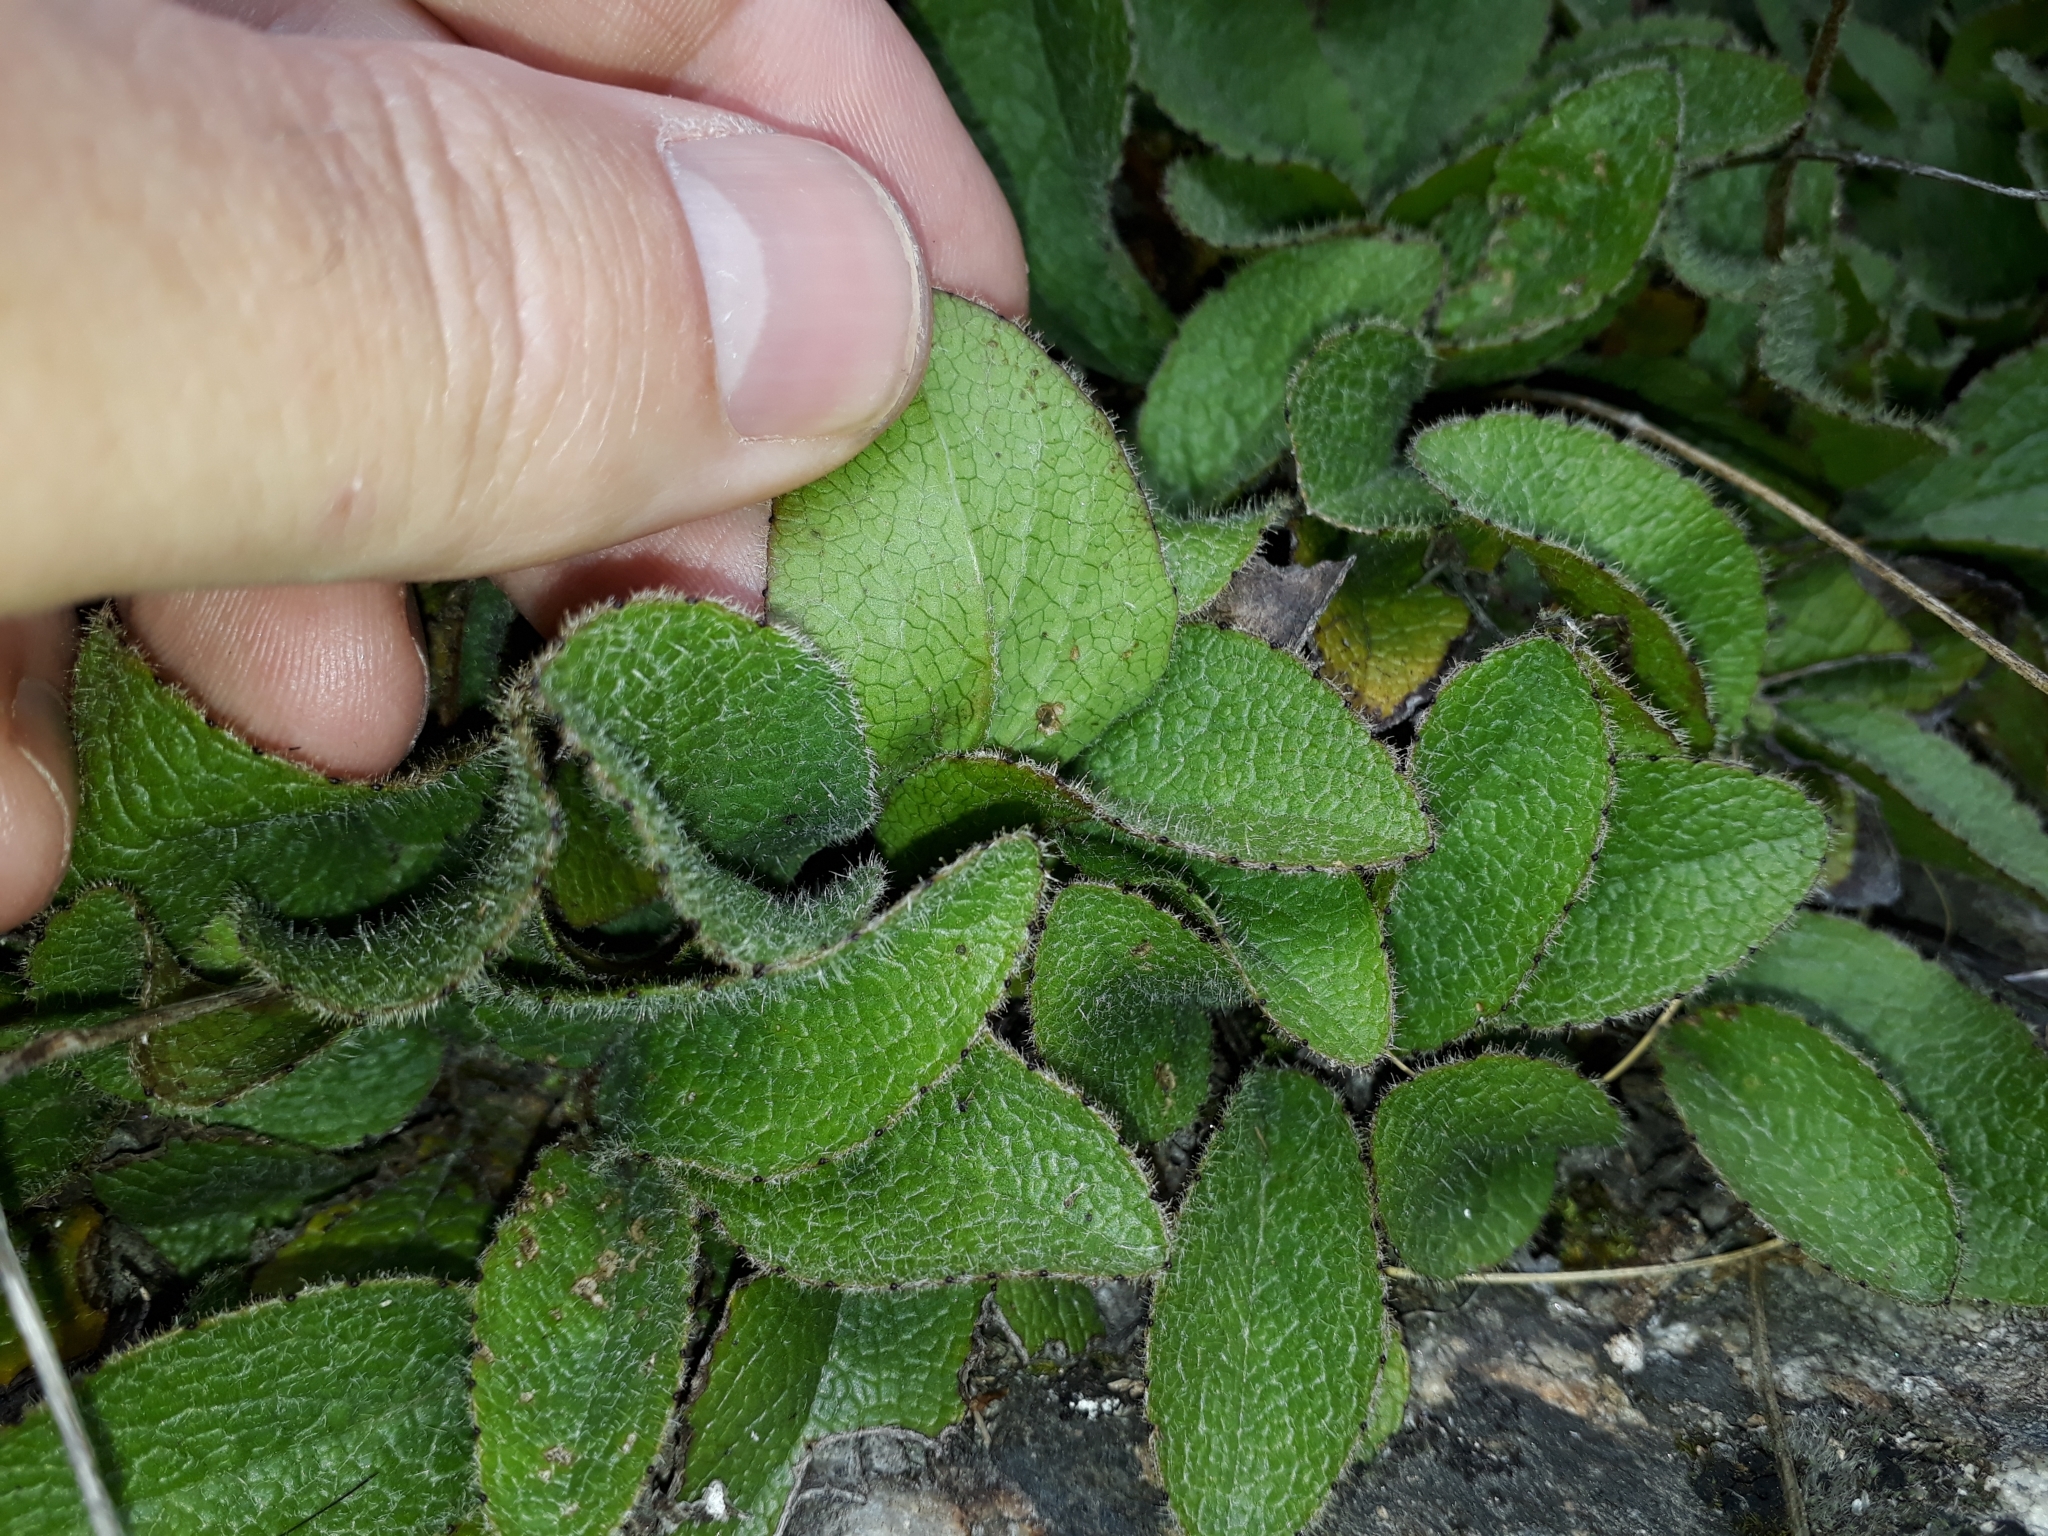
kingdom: Plantae
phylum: Tracheophyta
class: Magnoliopsida
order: Asterales
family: Asteraceae
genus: Brachyglottis
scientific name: Brachyglottis bellidioides
